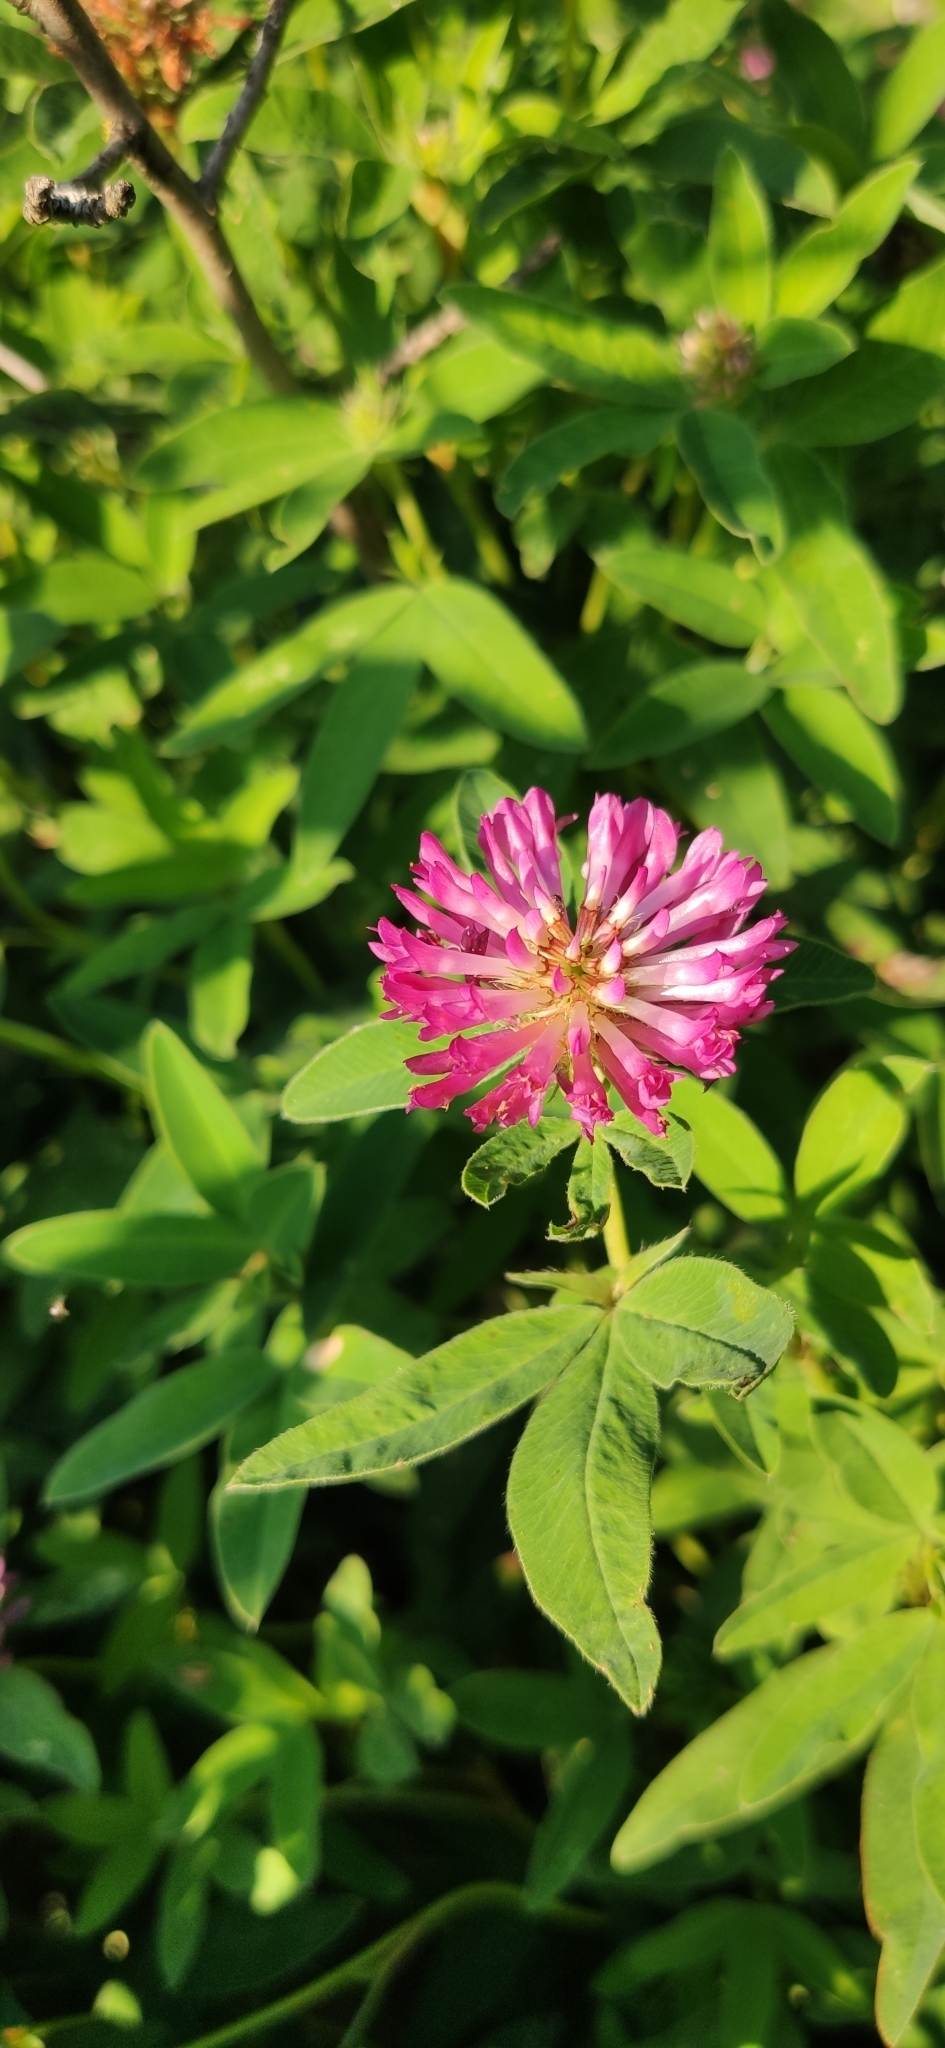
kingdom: Plantae
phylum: Tracheophyta
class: Magnoliopsida
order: Fabales
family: Fabaceae
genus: Trifolium
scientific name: Trifolium medium
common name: Zigzag clover
